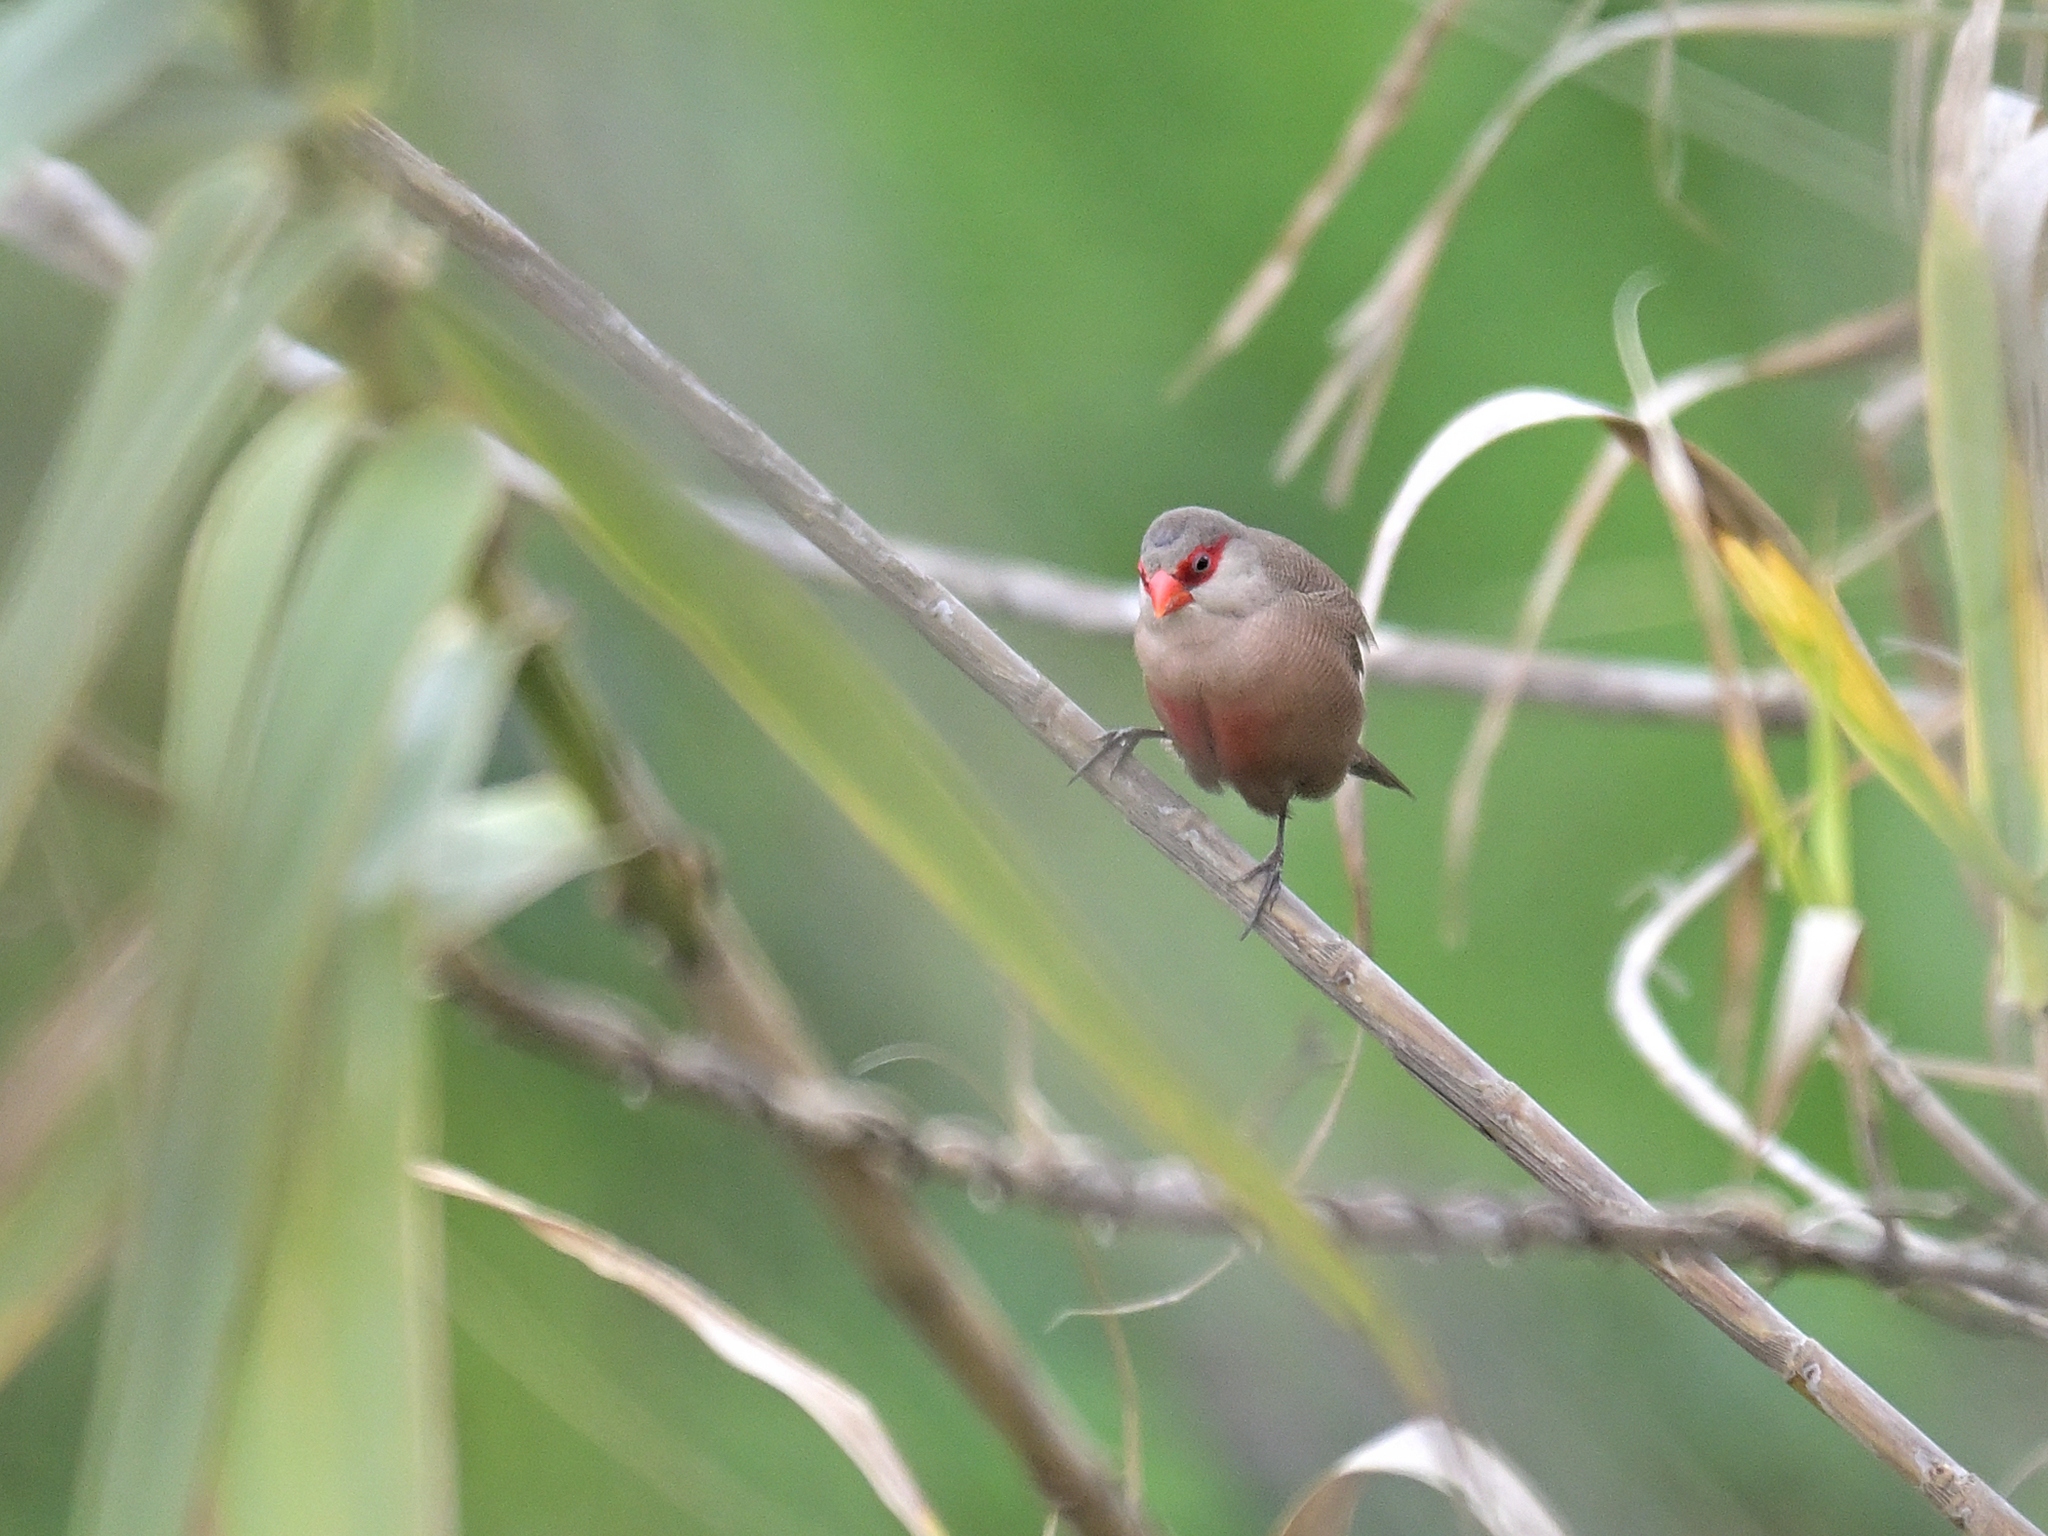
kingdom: Animalia
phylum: Chordata
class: Aves
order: Passeriformes
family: Estrildidae
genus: Estrilda
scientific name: Estrilda astrild
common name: Common waxbill
